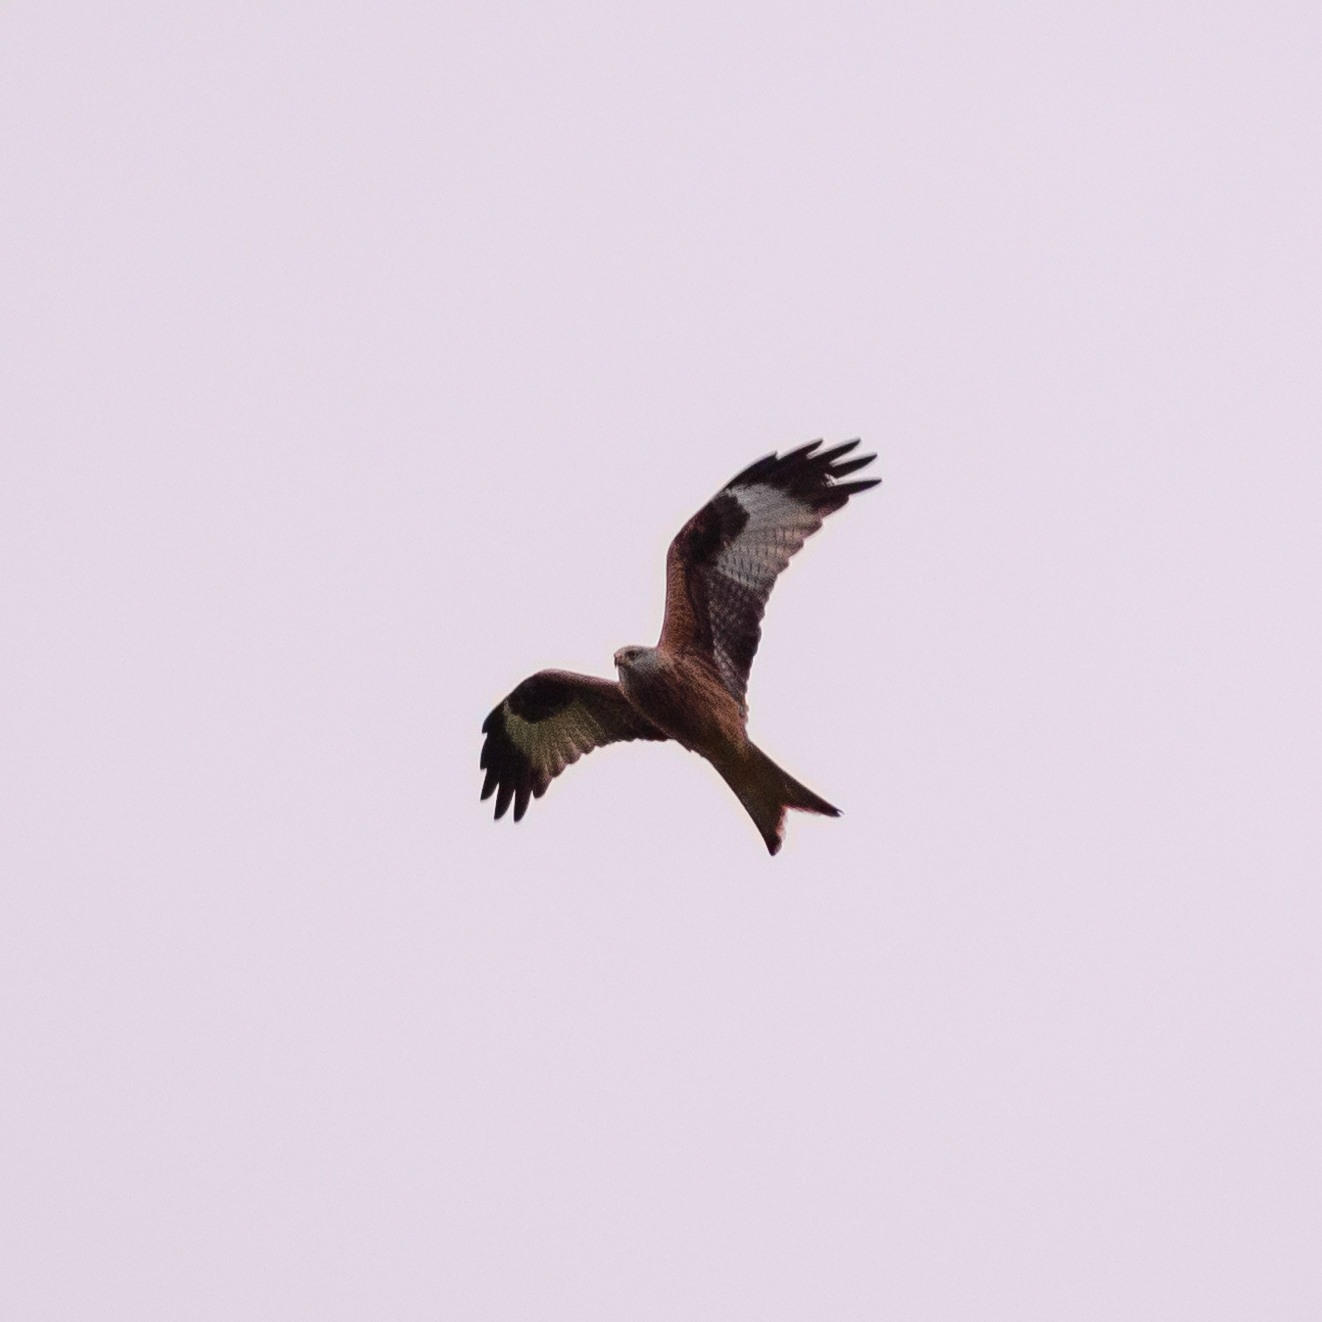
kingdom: Animalia
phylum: Chordata
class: Aves
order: Accipitriformes
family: Accipitridae
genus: Milvus
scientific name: Milvus milvus
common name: Red kite
